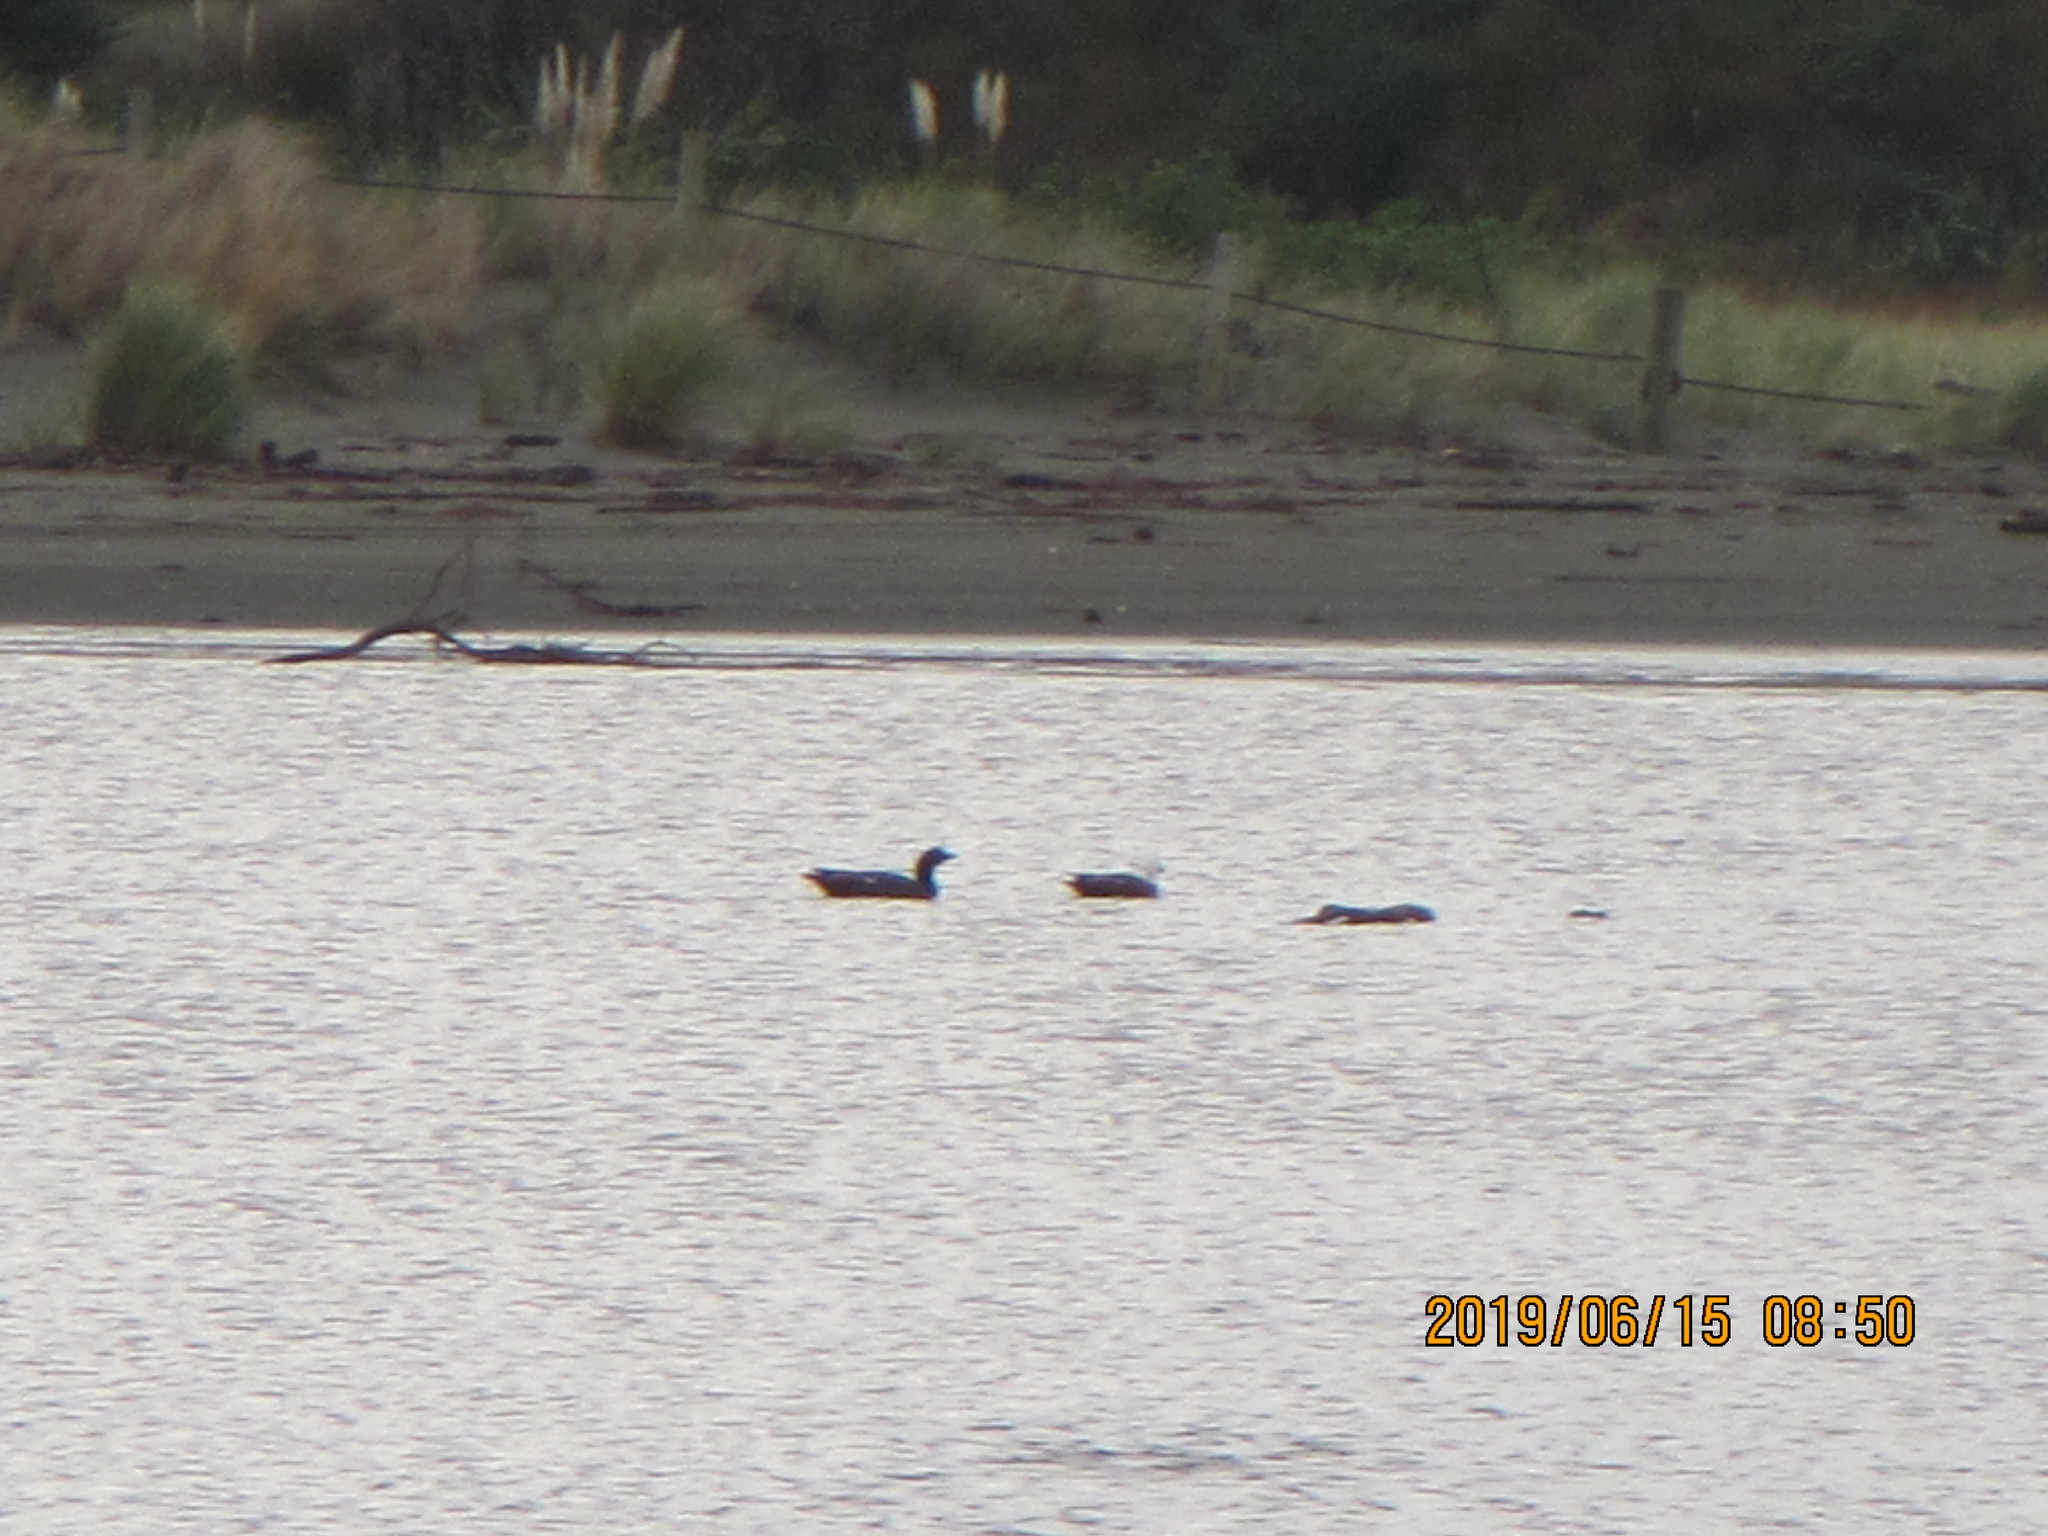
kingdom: Animalia
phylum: Chordata
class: Aves
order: Anseriformes
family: Anatidae
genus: Tadorna
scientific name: Tadorna variegata
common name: Paradise shelduck
